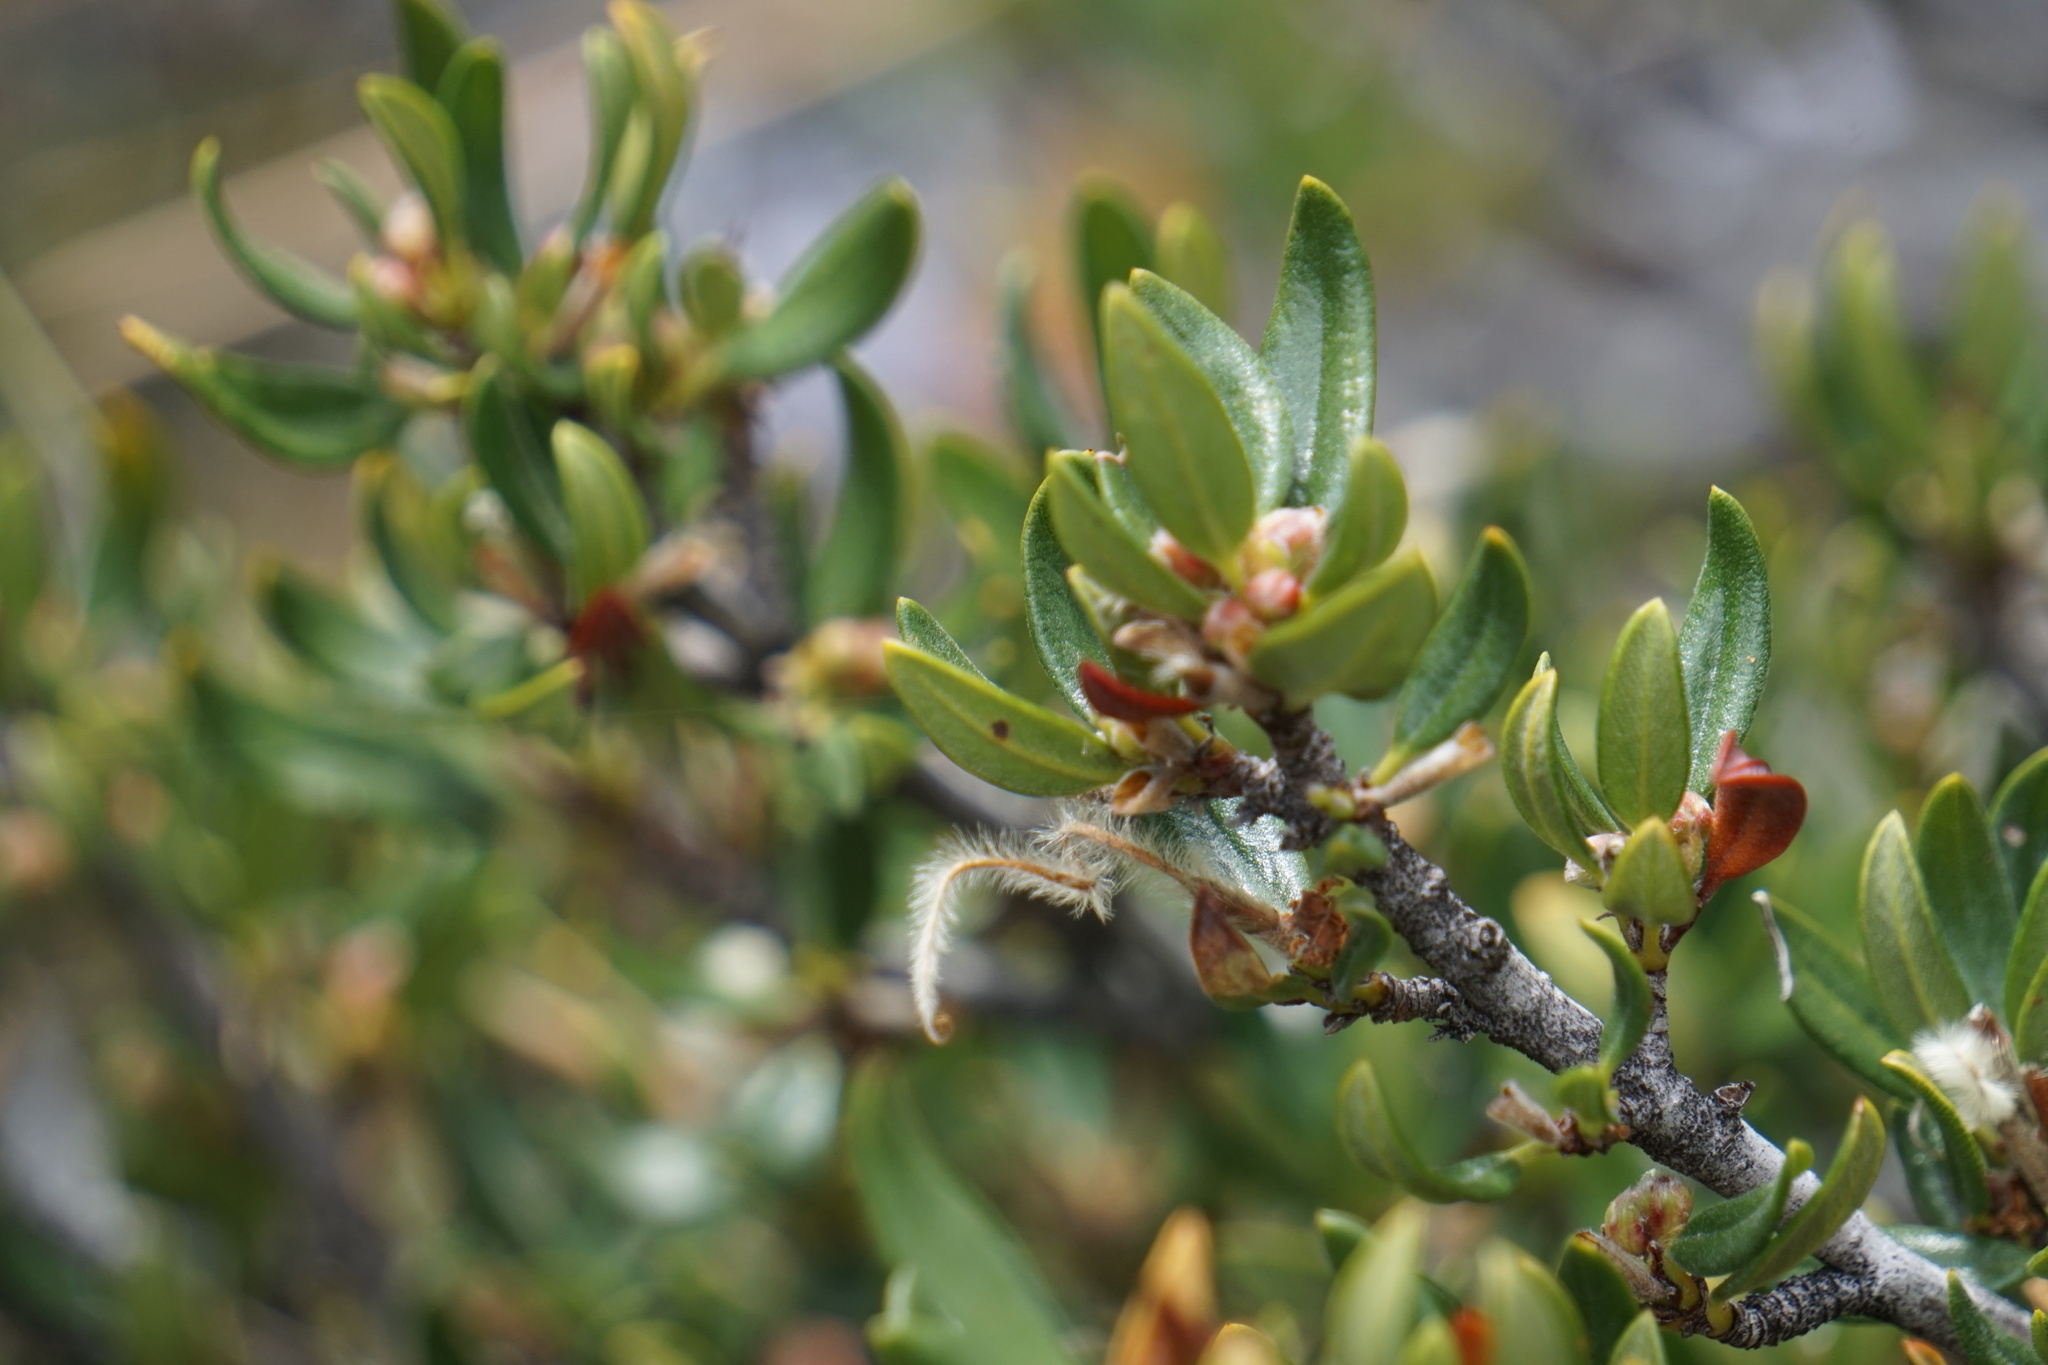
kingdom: Plantae
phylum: Tracheophyta
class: Magnoliopsida
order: Rosales
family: Rosaceae
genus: Cercocarpus
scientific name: Cercocarpus ledifolius
